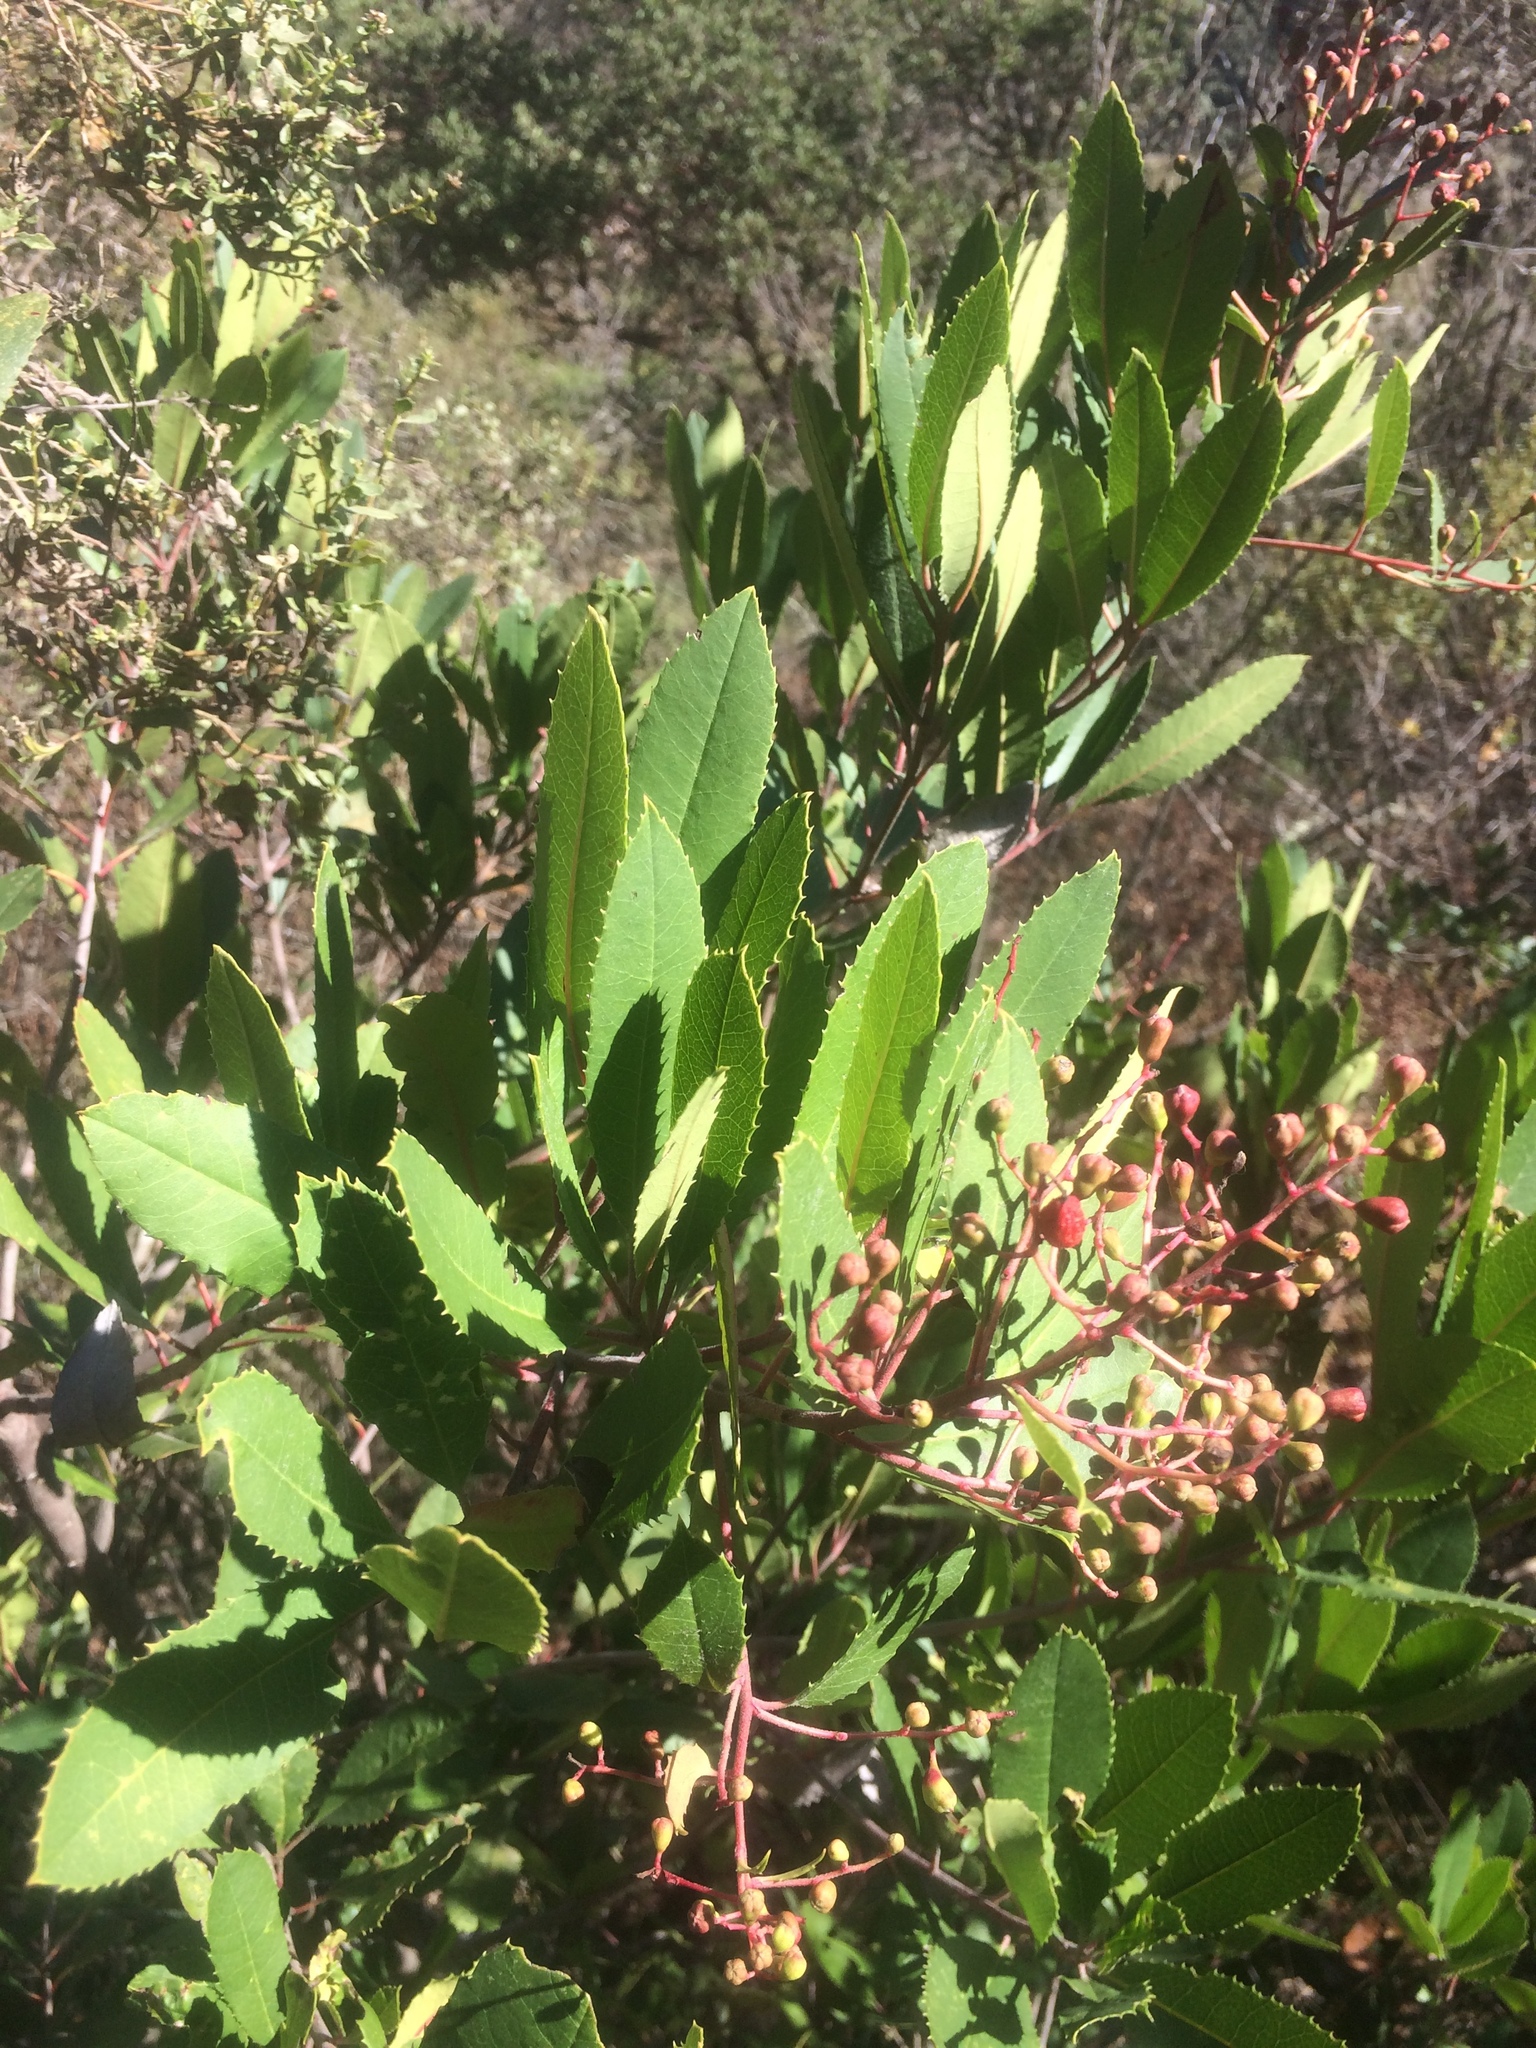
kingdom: Plantae
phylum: Tracheophyta
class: Magnoliopsida
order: Rosales
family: Rosaceae
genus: Heteromeles
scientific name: Heteromeles arbutifolia
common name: California-holly
